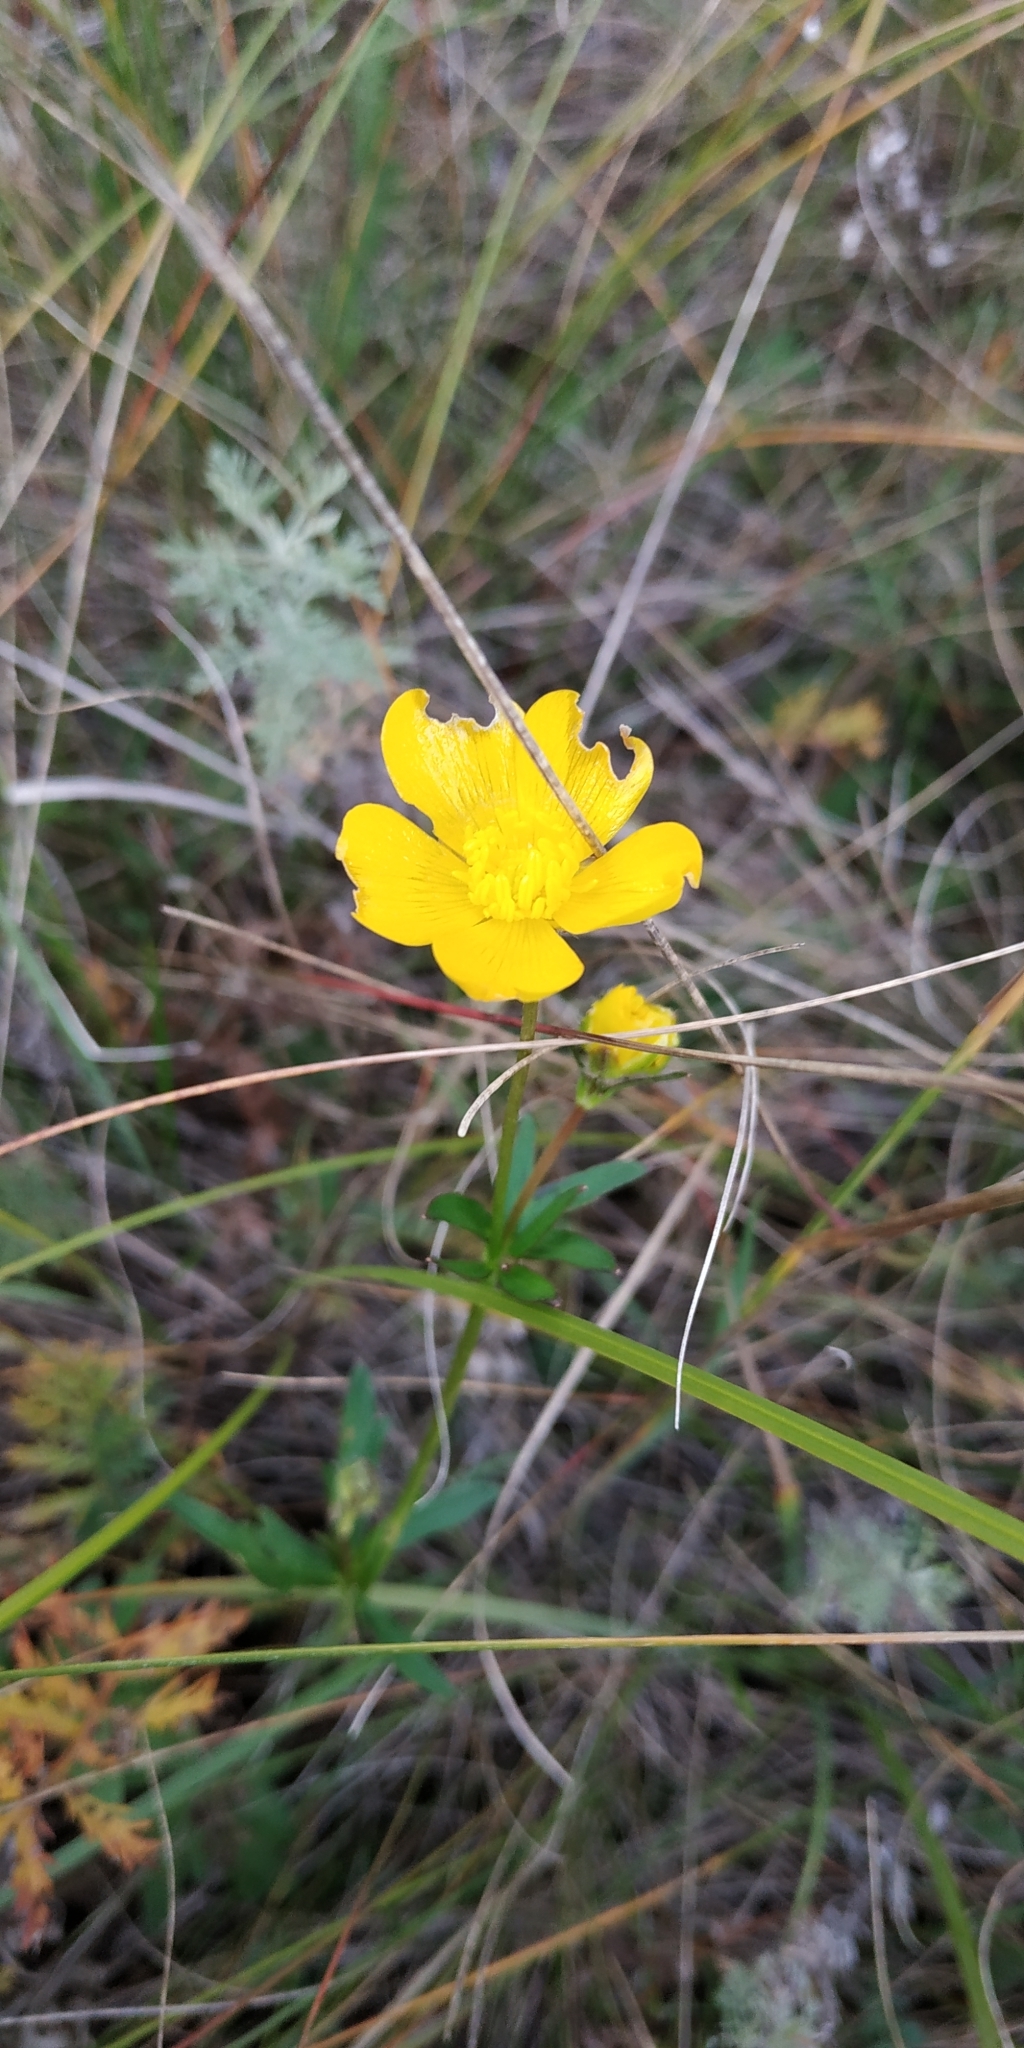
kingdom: Plantae
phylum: Tracheophyta
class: Magnoliopsida
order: Ranunculales
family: Ranunculaceae
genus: Ranunculus
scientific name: Ranunculus polyanthemos
